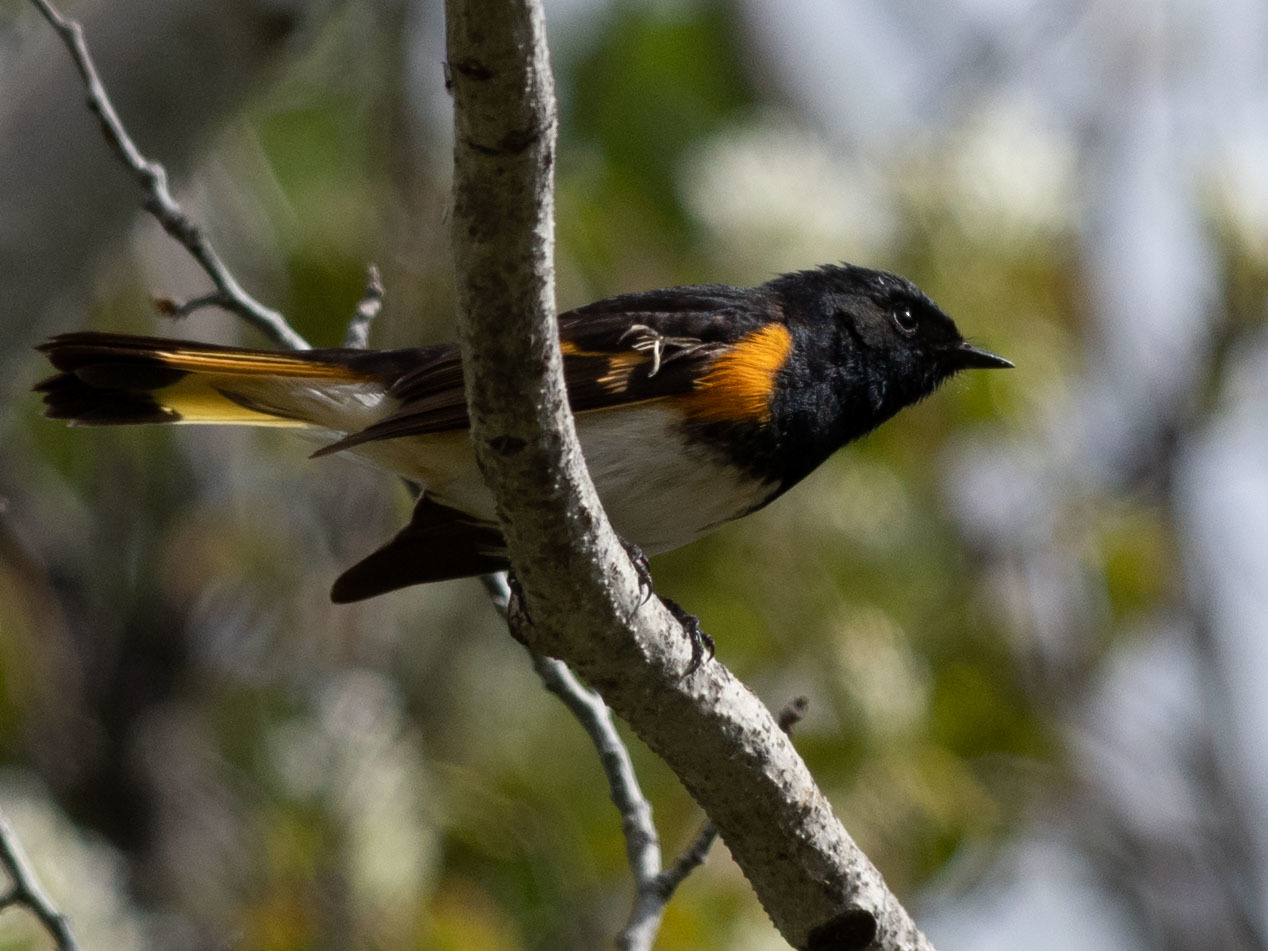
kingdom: Animalia
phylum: Chordata
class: Aves
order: Passeriformes
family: Parulidae
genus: Setophaga
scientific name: Setophaga ruticilla
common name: American redstart
